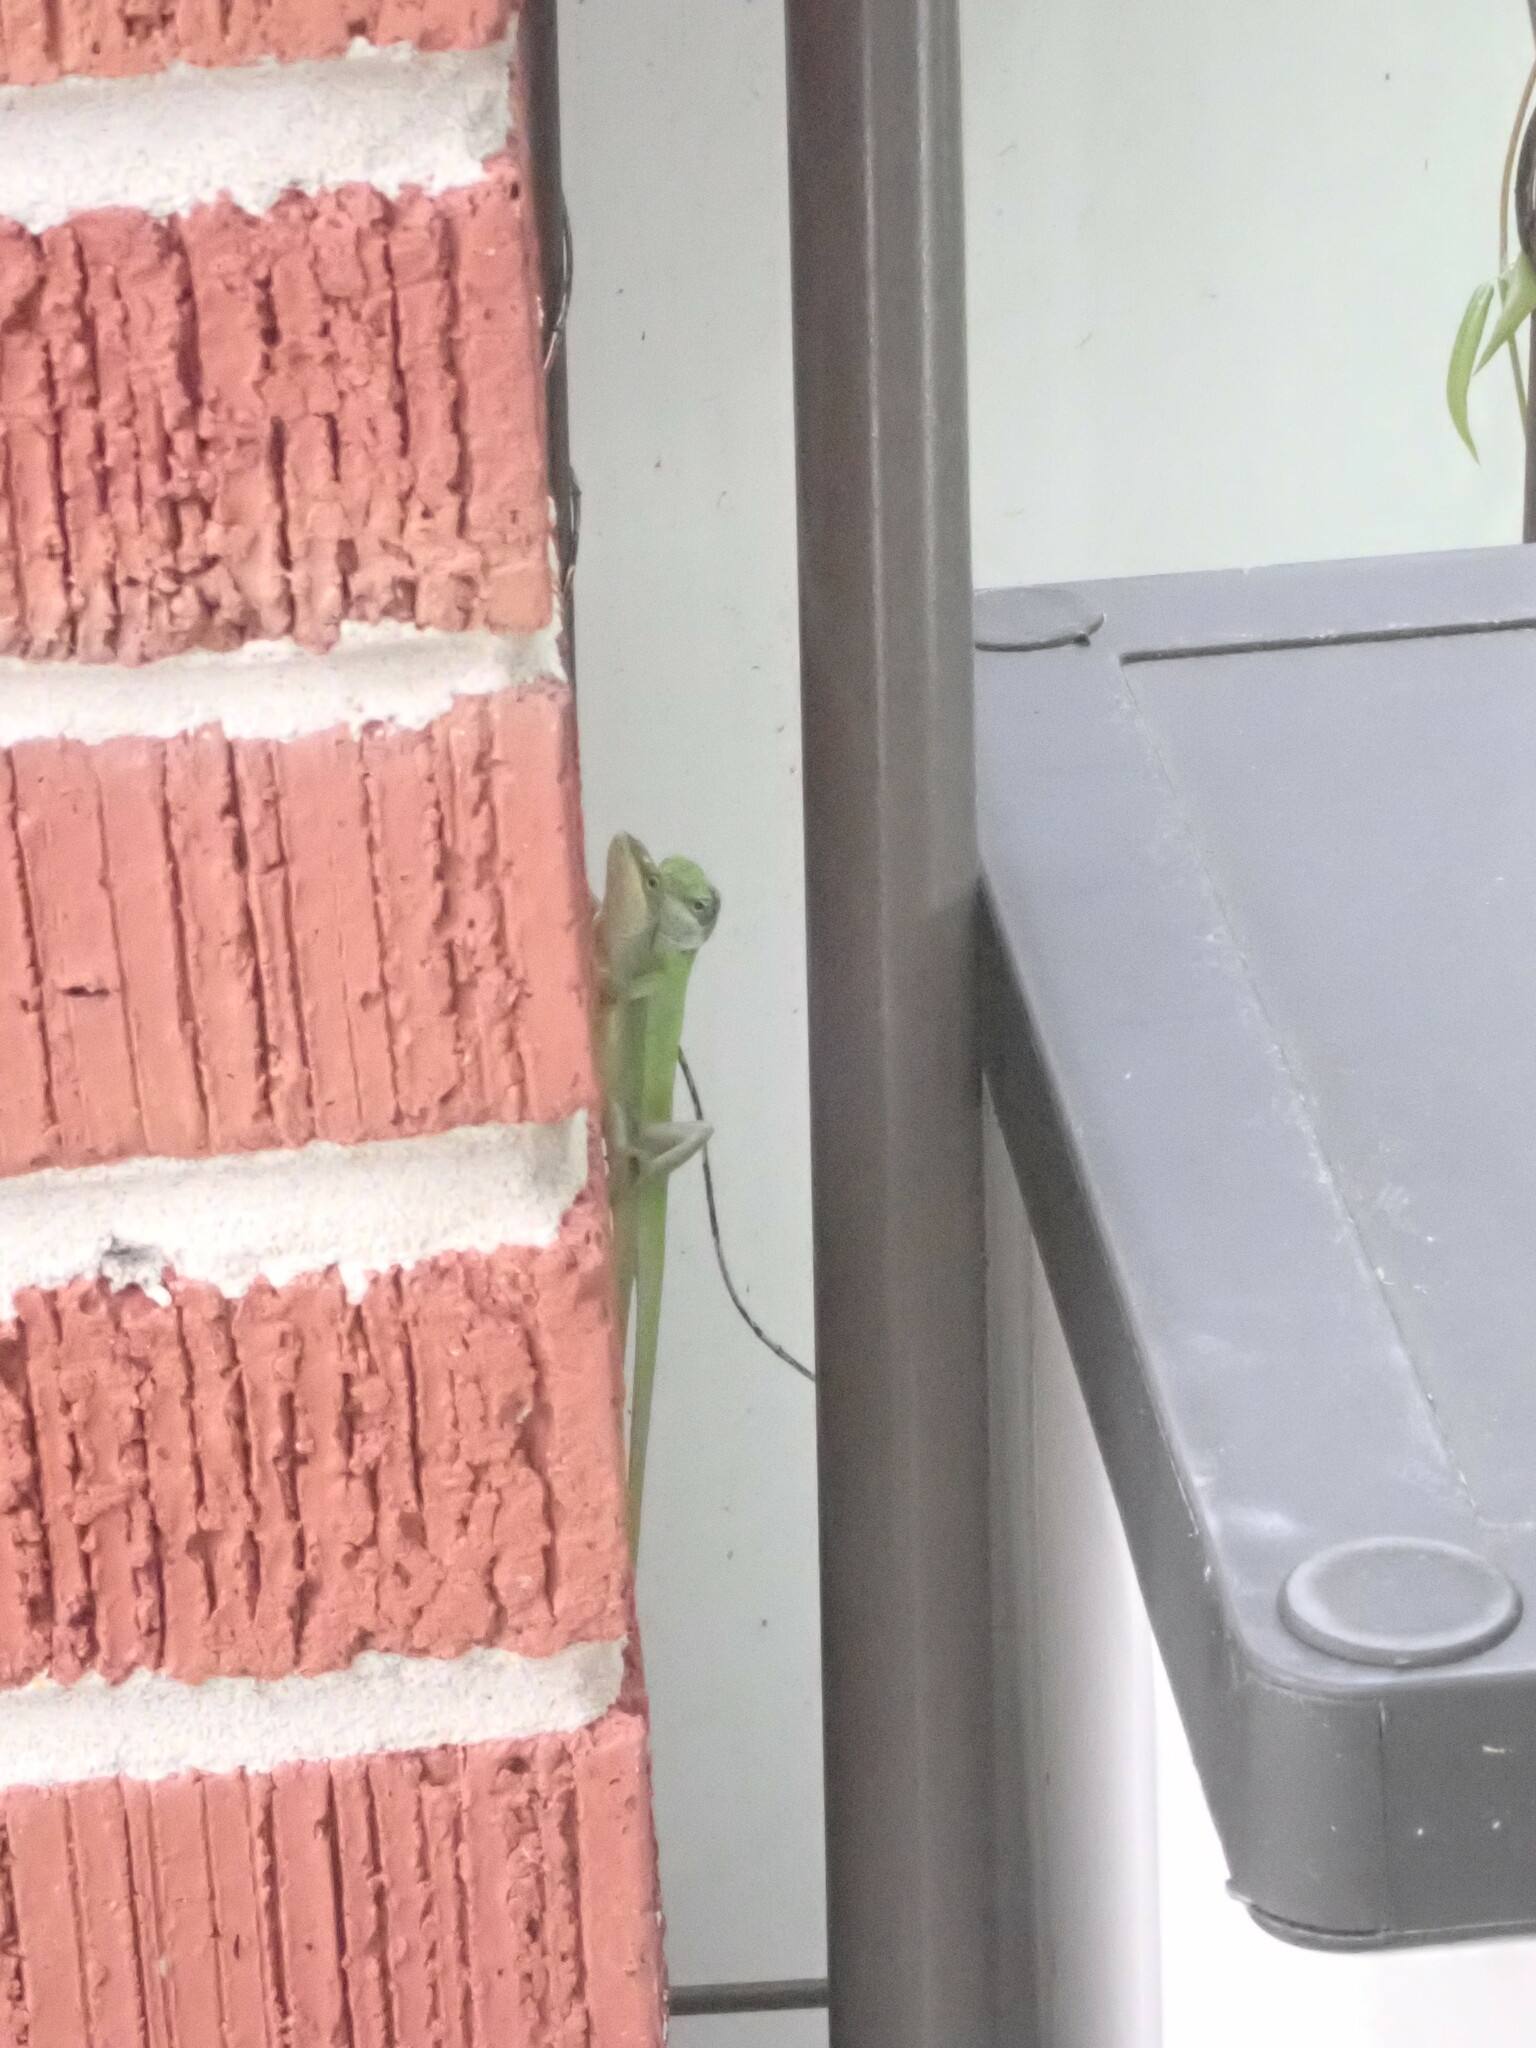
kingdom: Animalia
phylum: Chordata
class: Squamata
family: Dactyloidae
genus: Anolis
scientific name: Anolis carolinensis
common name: Green anole
